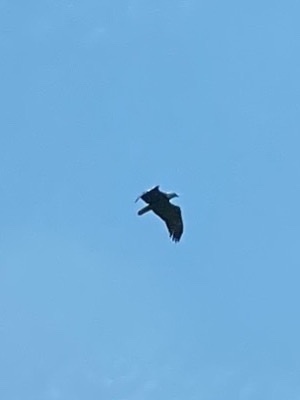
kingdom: Animalia
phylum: Chordata
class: Aves
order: Accipitriformes
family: Accipitridae
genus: Haliaeetus
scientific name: Haliaeetus leucocephalus
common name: Bald eagle
